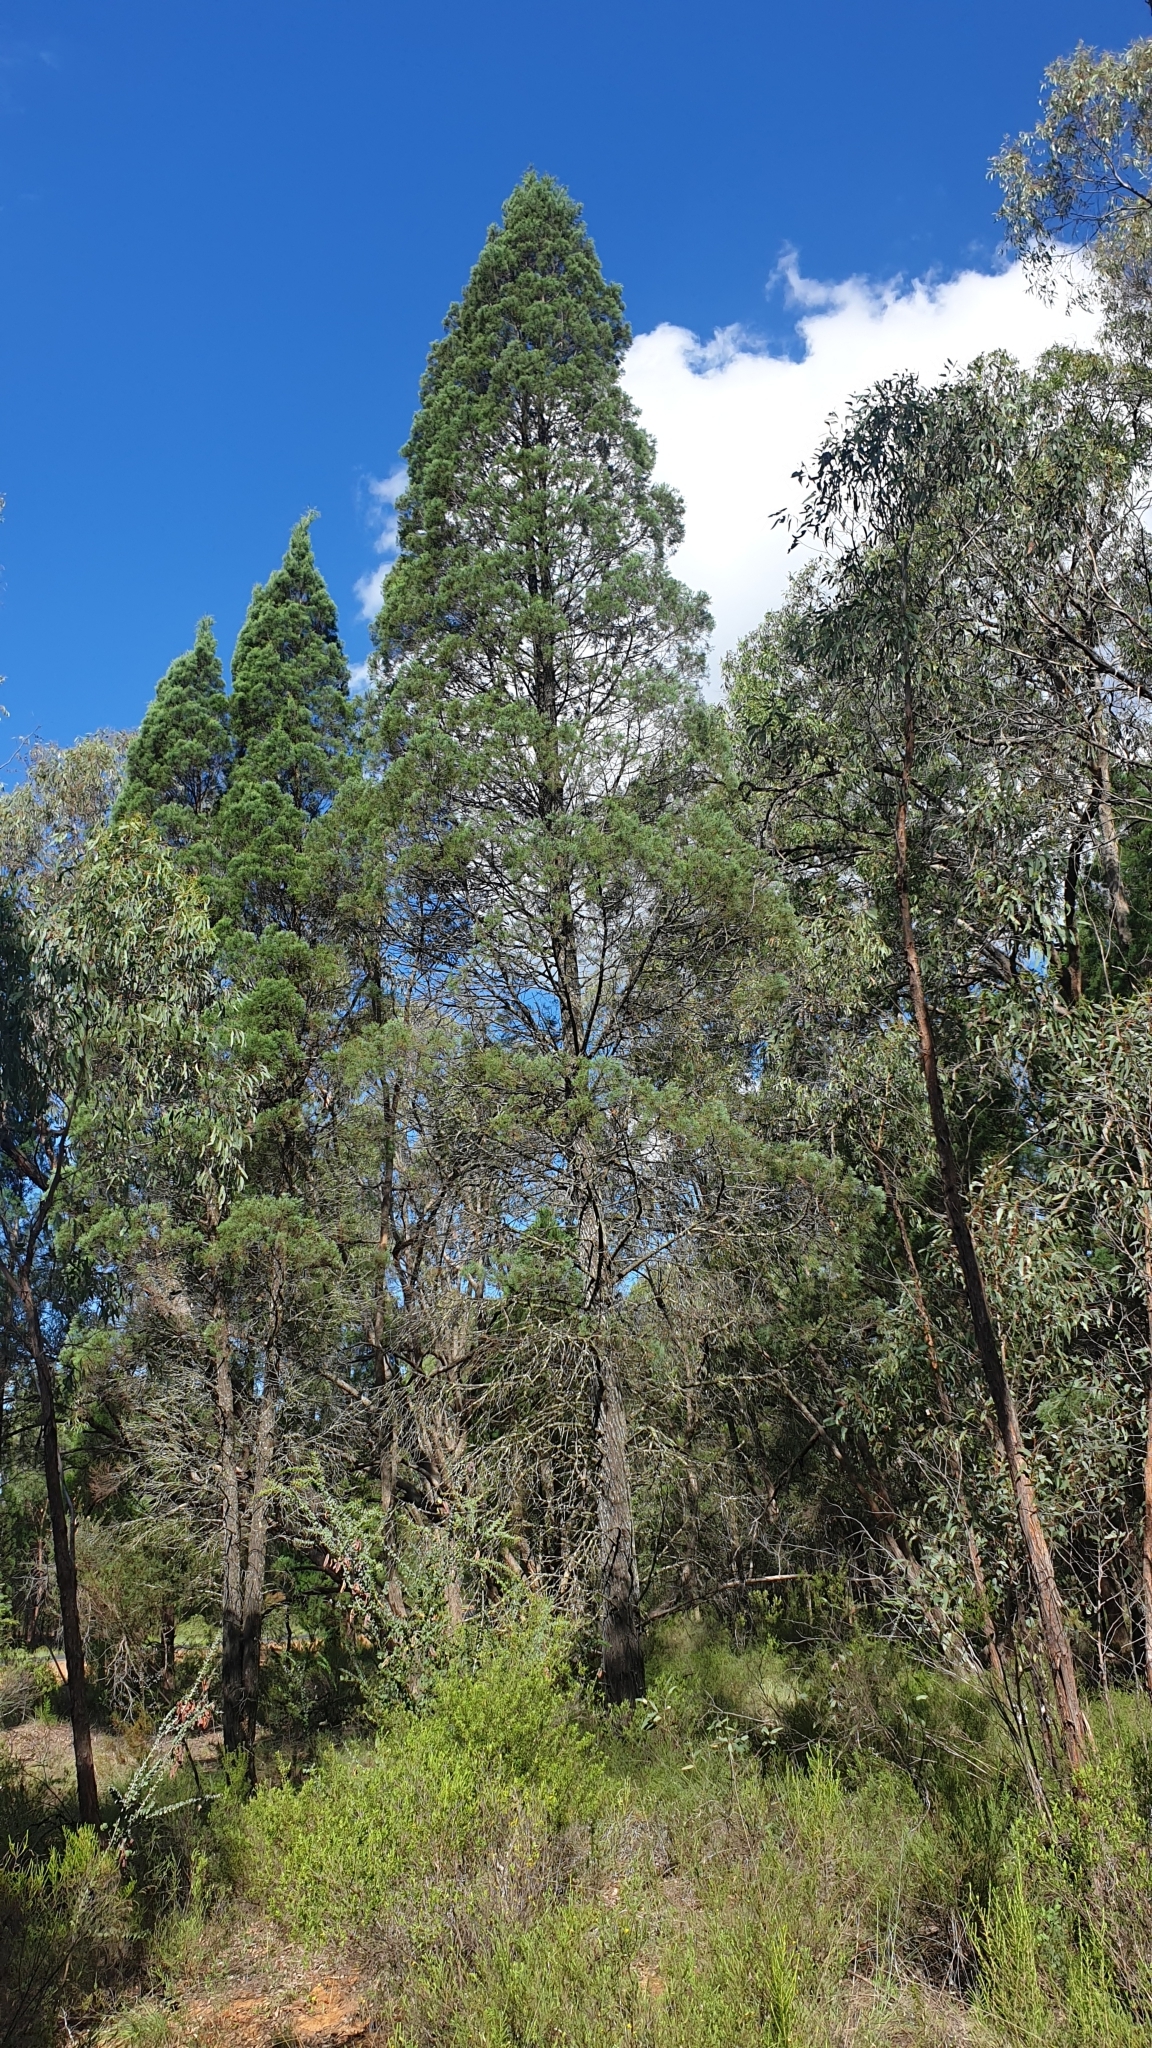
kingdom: Plantae
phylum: Tracheophyta
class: Pinopsida
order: Pinales
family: Cupressaceae
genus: Callitris
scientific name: Callitris endlicheri
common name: Black cypress-pine
